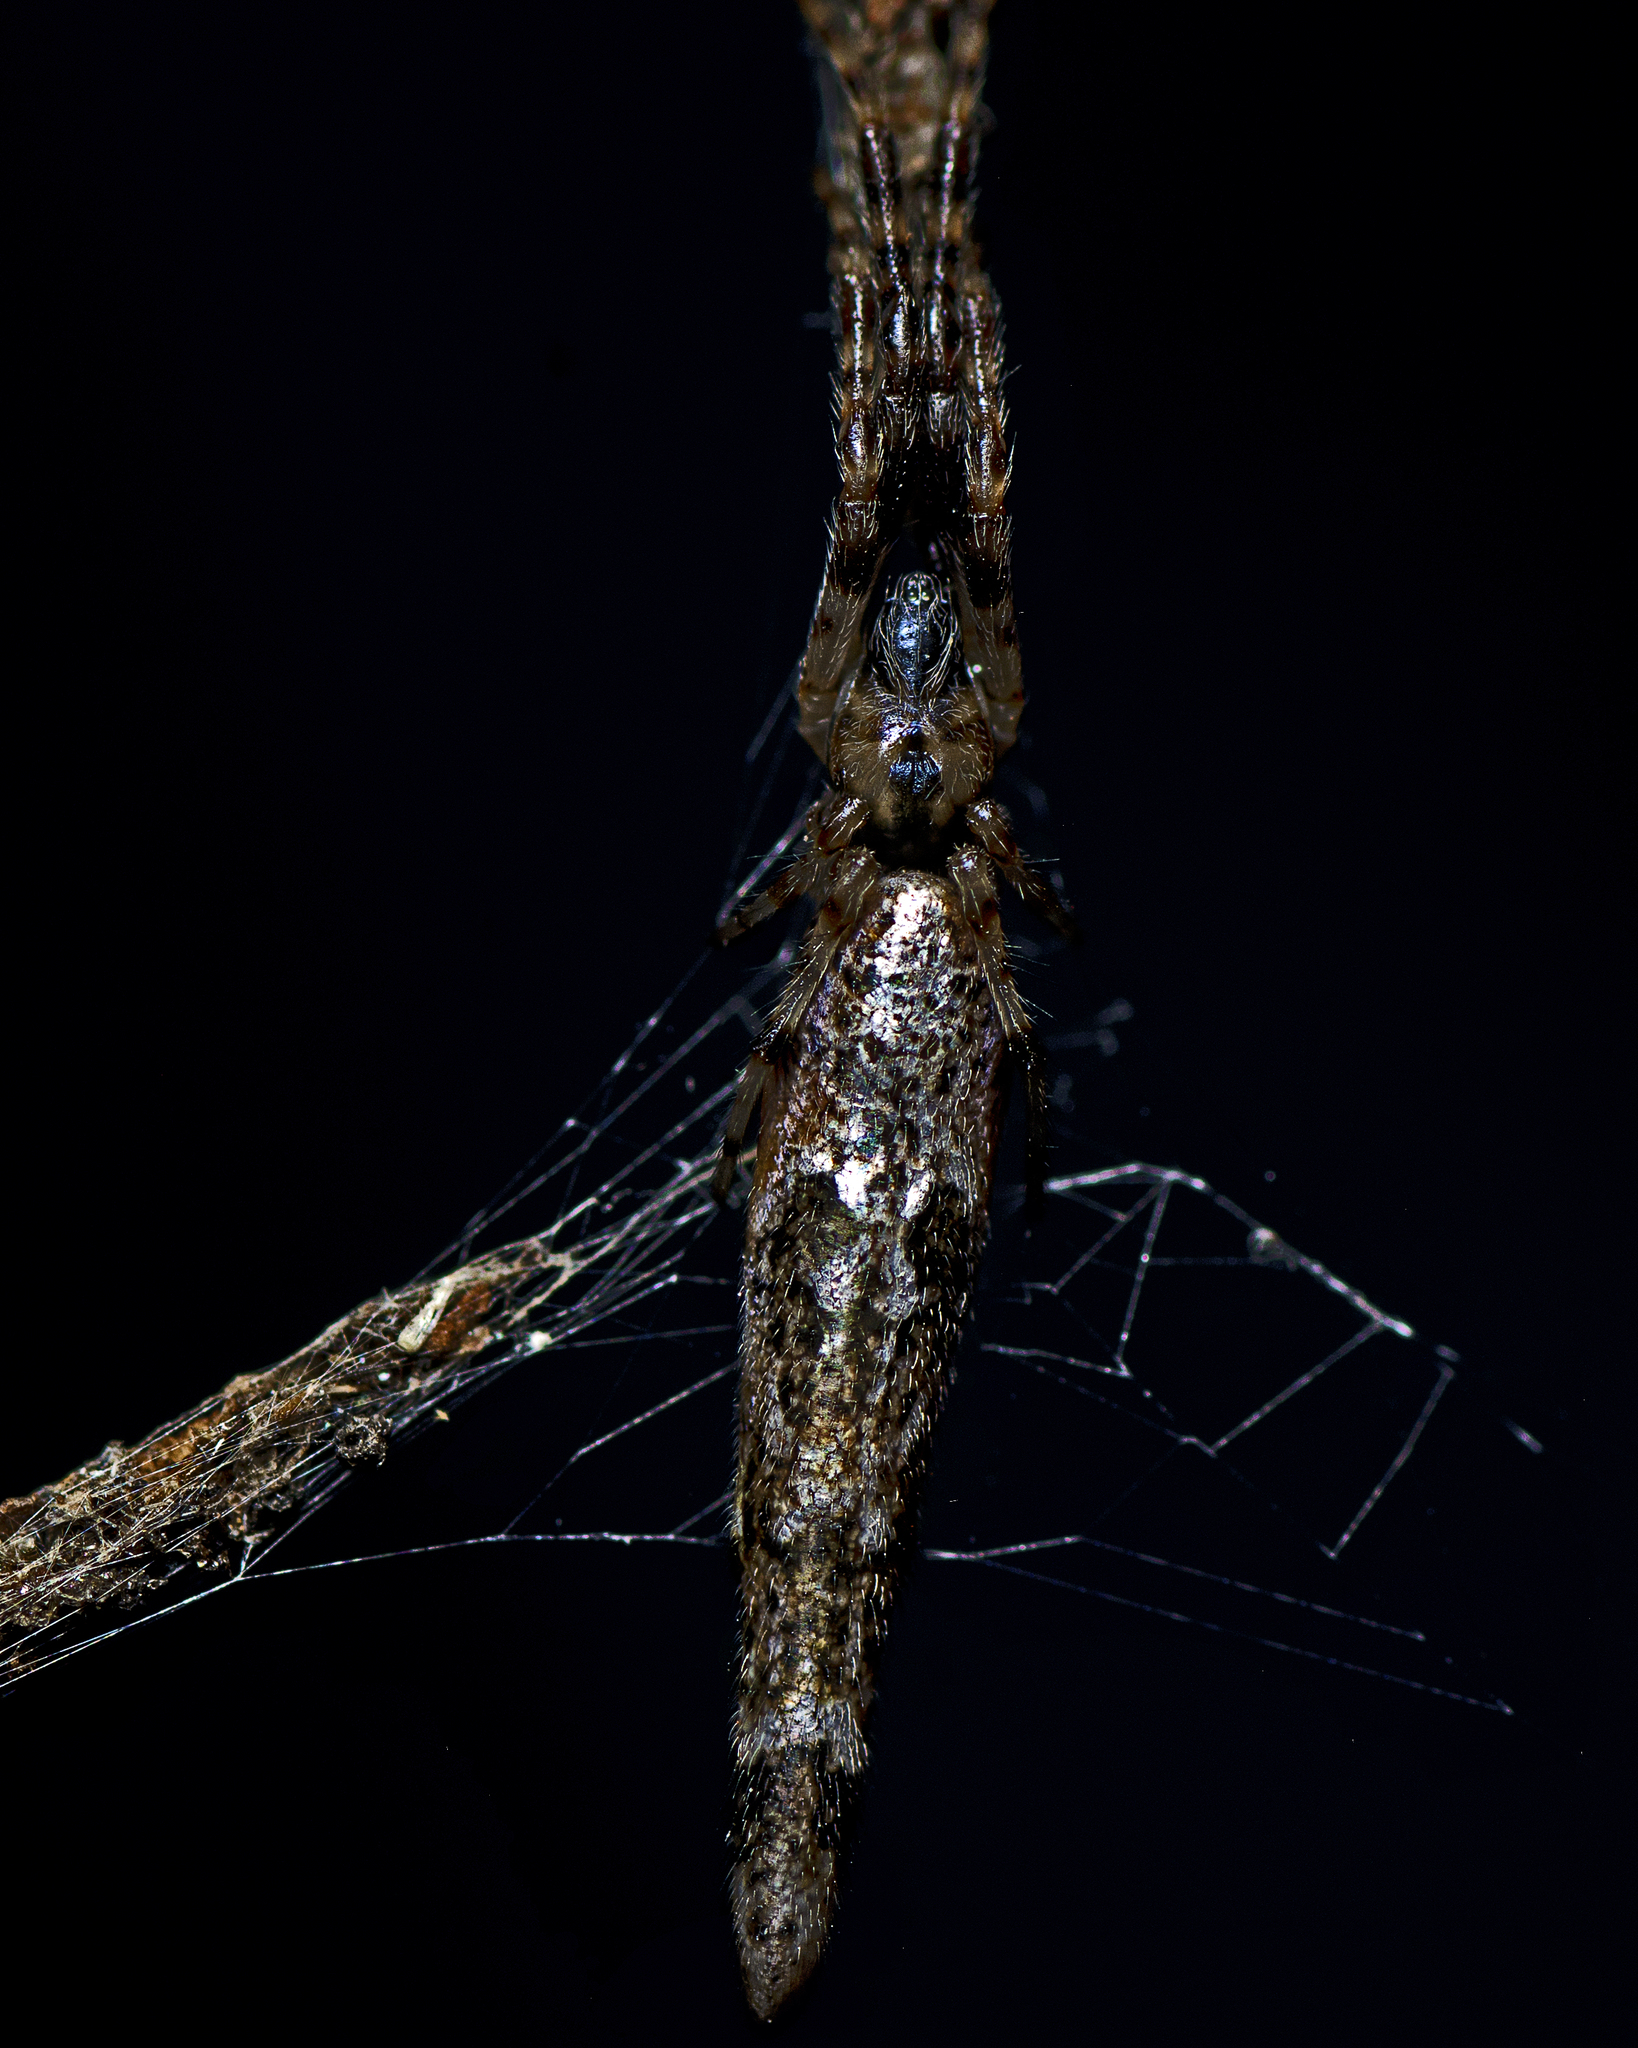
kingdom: Animalia
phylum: Arthropoda
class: Arachnida
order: Araneae
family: Araneidae
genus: Cyclosa
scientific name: Cyclosa bacilliformis
